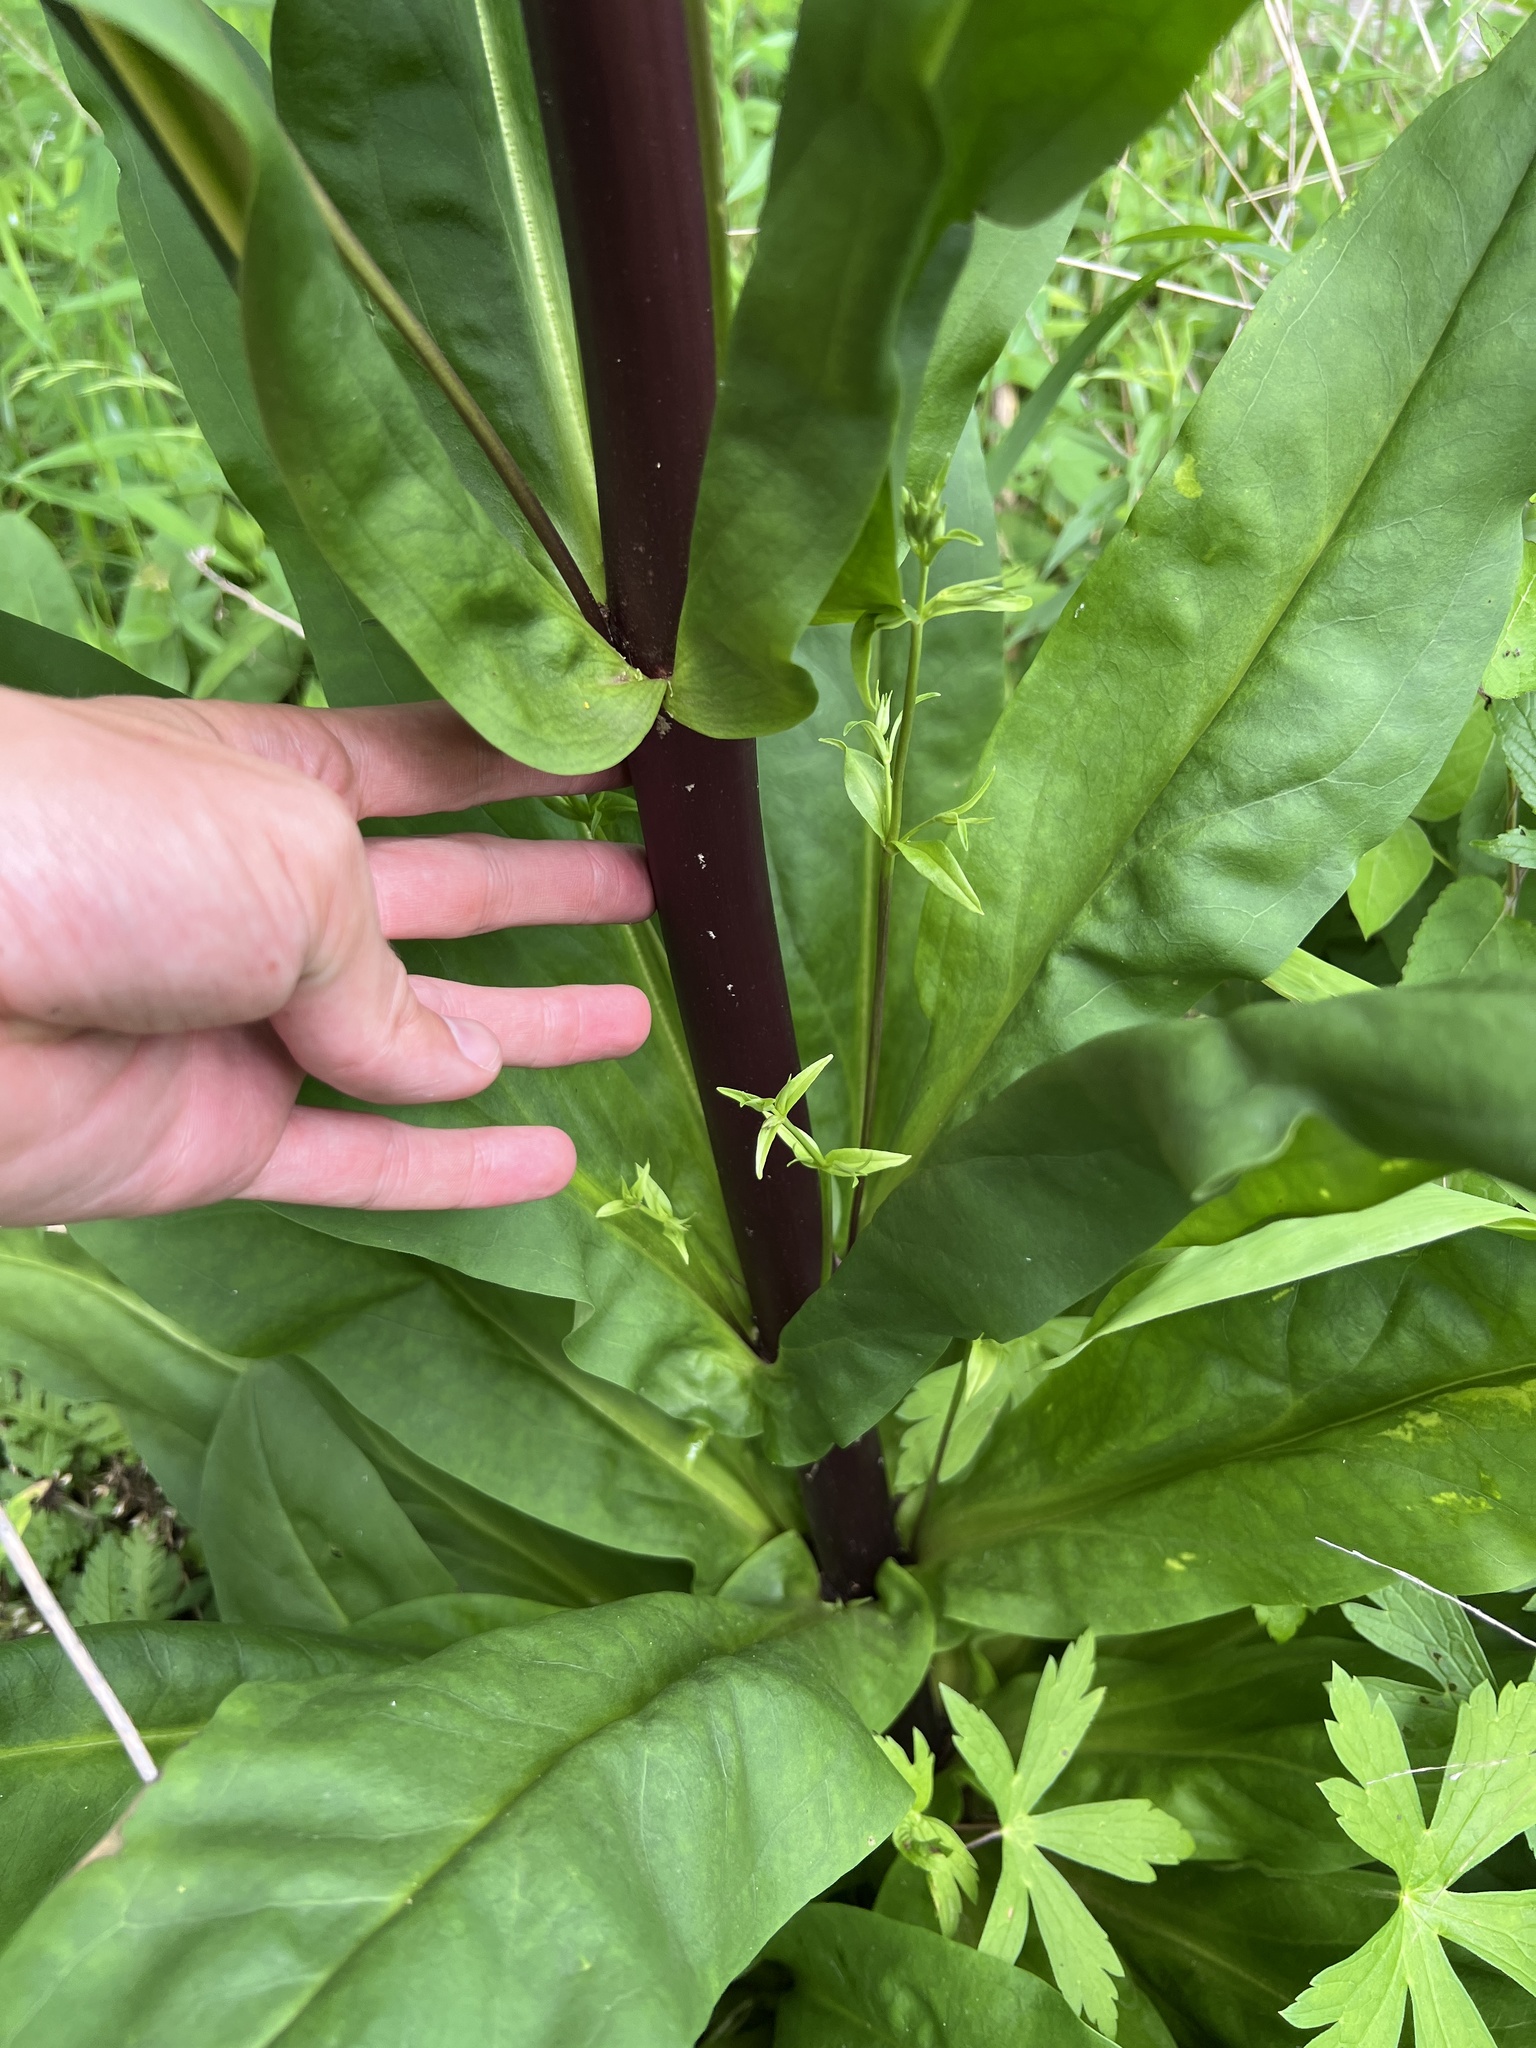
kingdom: Plantae
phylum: Tracheophyta
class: Magnoliopsida
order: Gentianales
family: Gentianaceae
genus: Frasera
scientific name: Frasera caroliniensis
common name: American columbo
